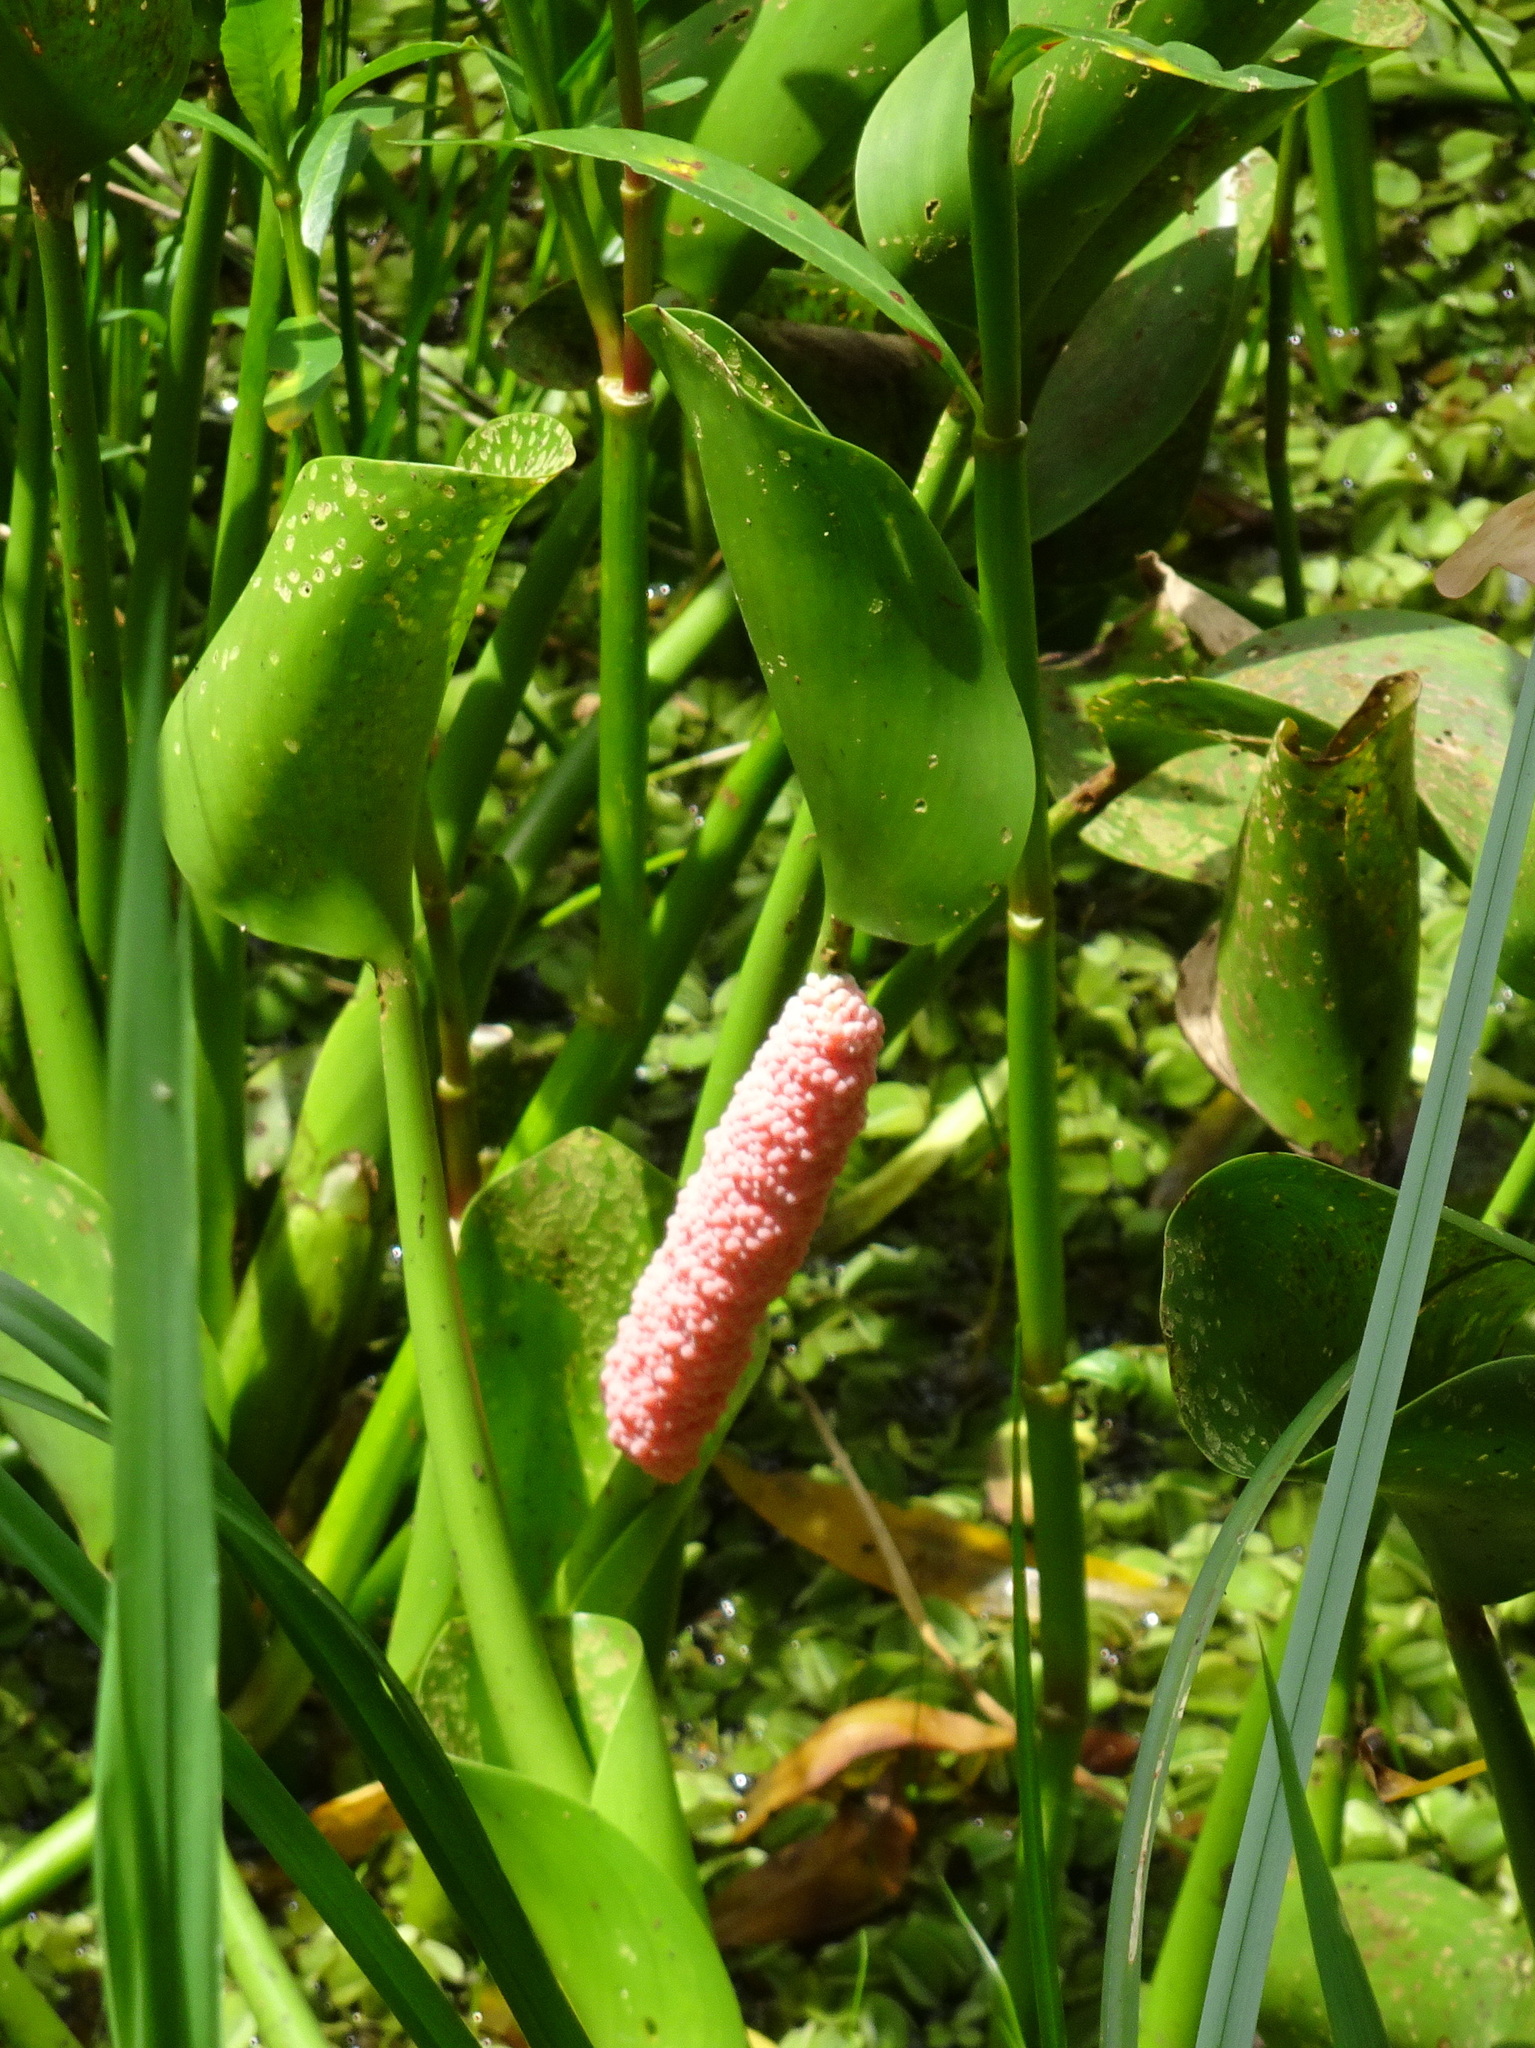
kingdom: Animalia
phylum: Mollusca
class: Gastropoda
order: Architaenioglossa
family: Ampullariidae
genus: Pomacea
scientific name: Pomacea canaliculata
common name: Channeled applesnail
